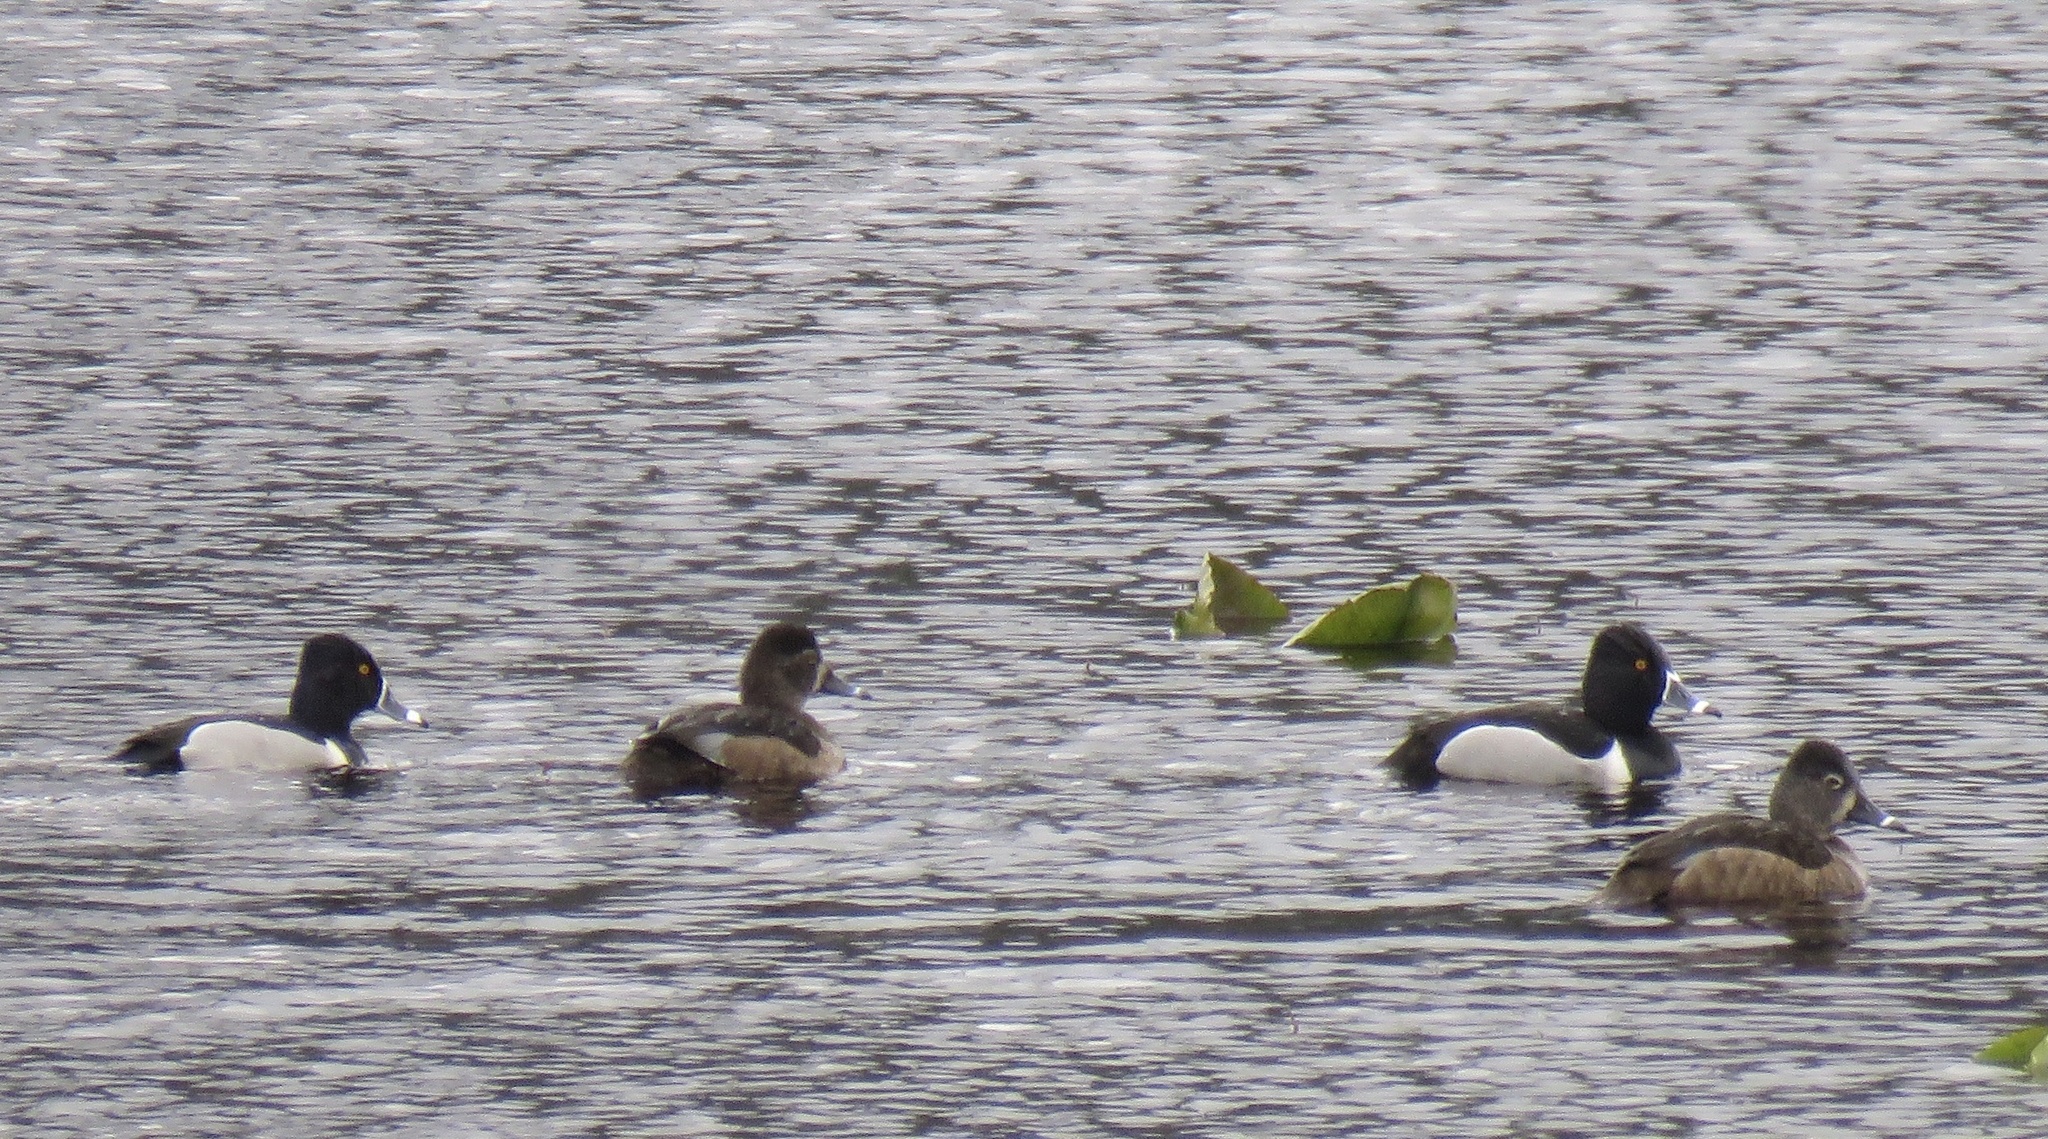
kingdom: Animalia
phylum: Chordata
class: Aves
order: Anseriformes
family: Anatidae
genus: Aythya
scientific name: Aythya collaris
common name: Ring-necked duck
